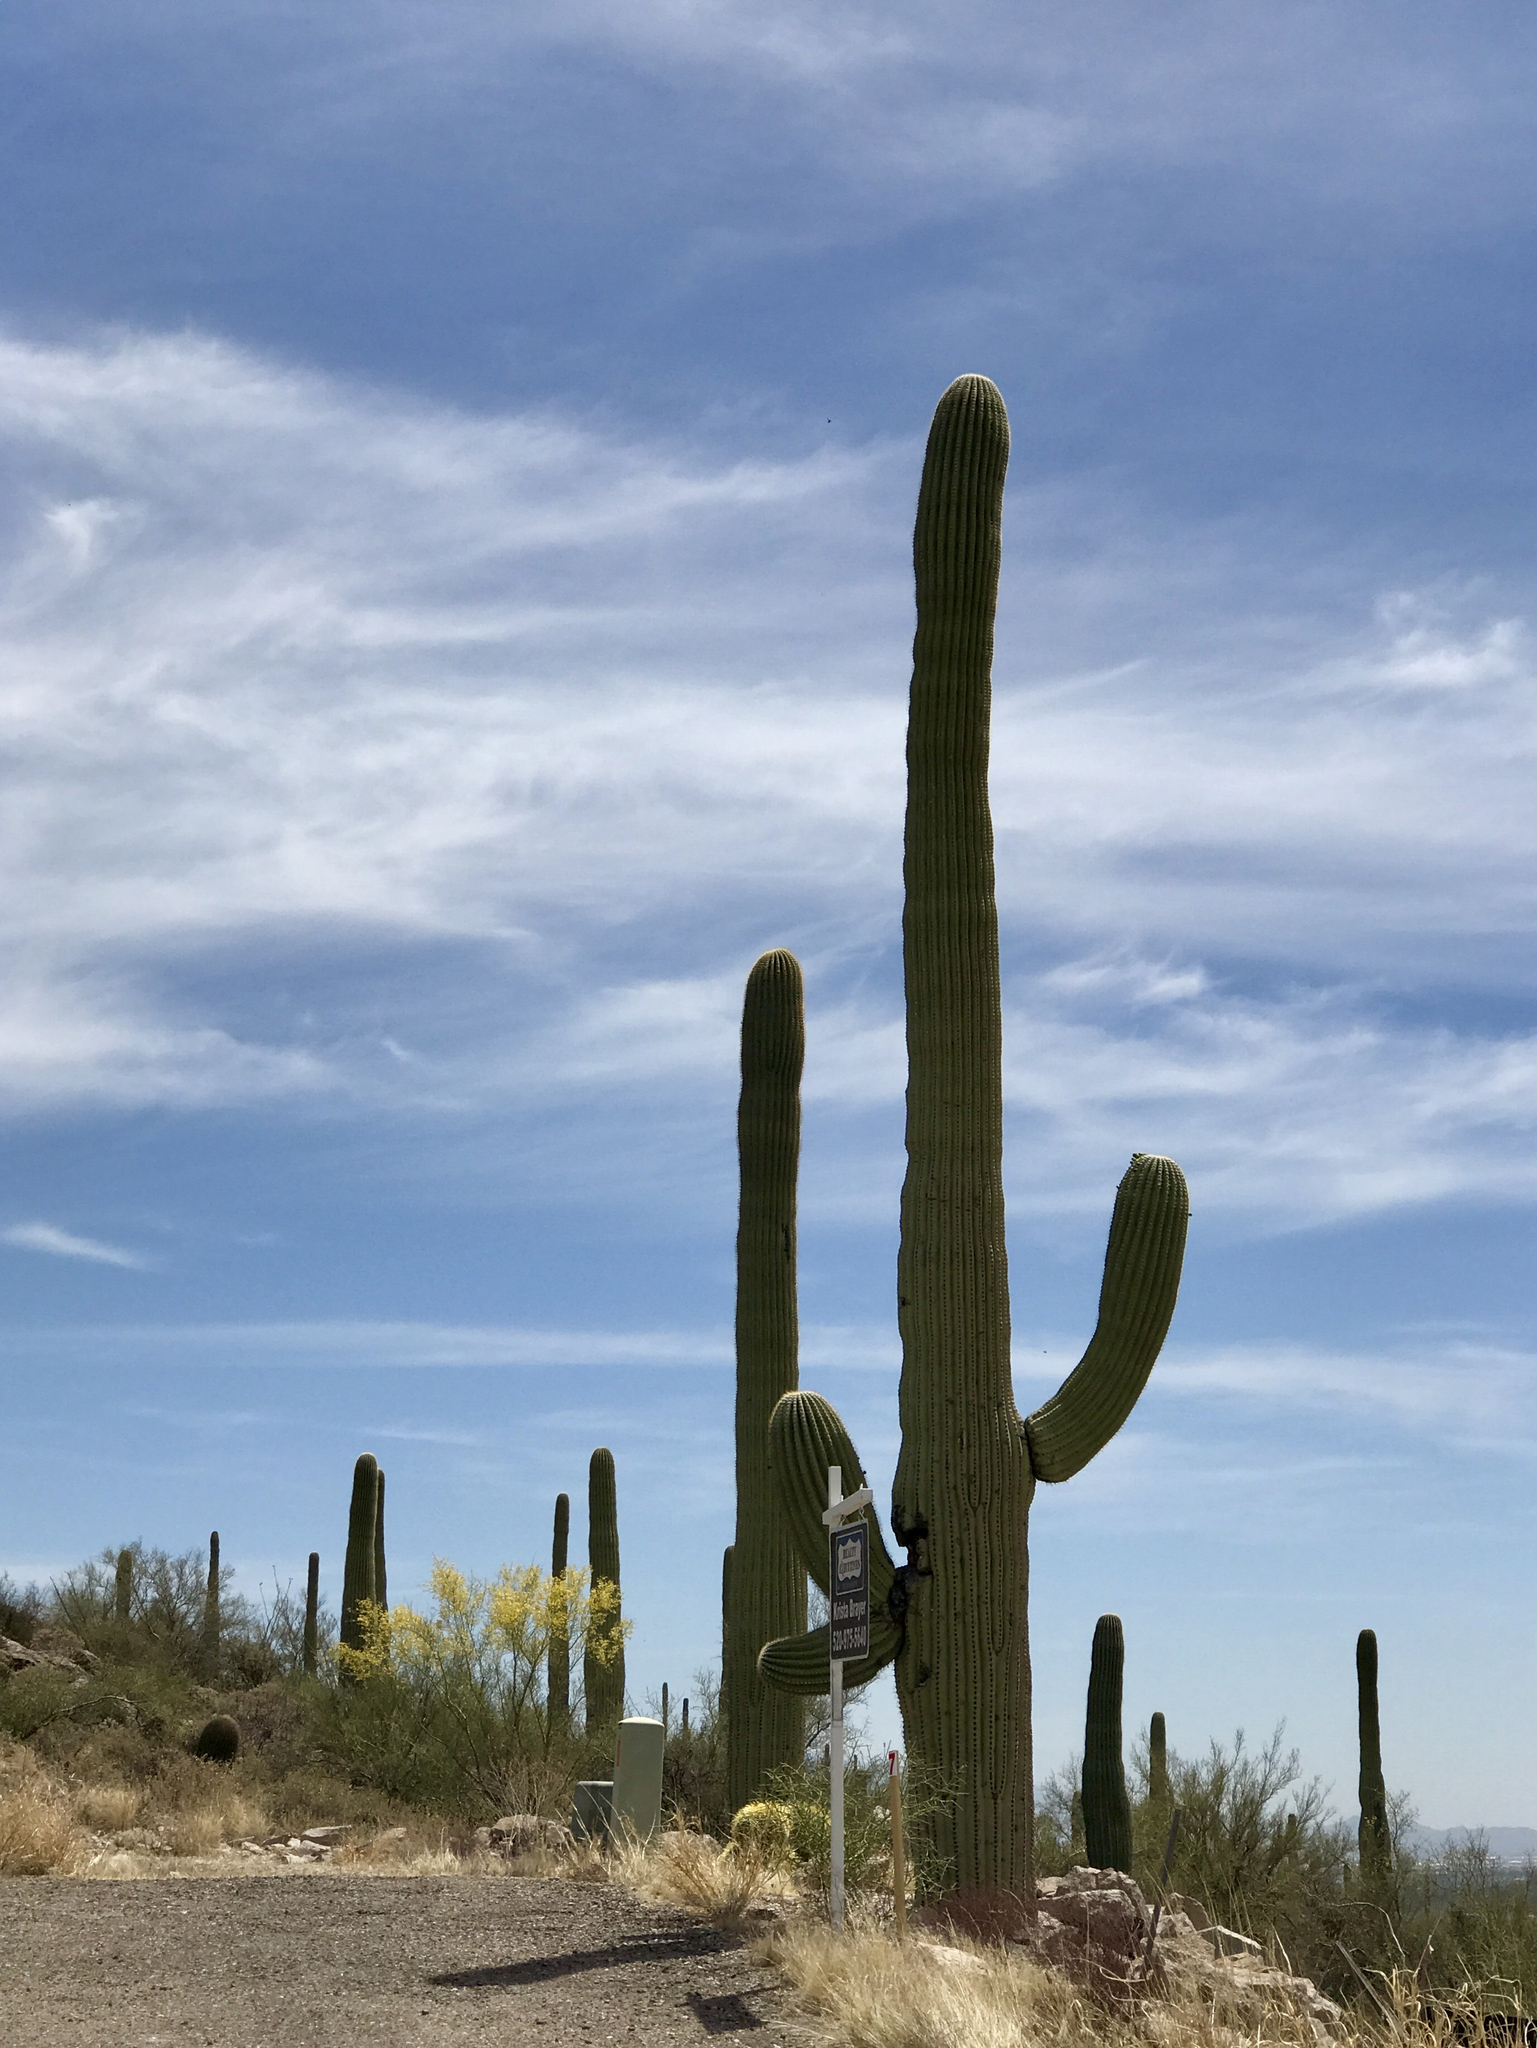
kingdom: Plantae
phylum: Tracheophyta
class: Magnoliopsida
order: Caryophyllales
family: Cactaceae
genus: Carnegiea
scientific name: Carnegiea gigantea
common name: Saguaro
